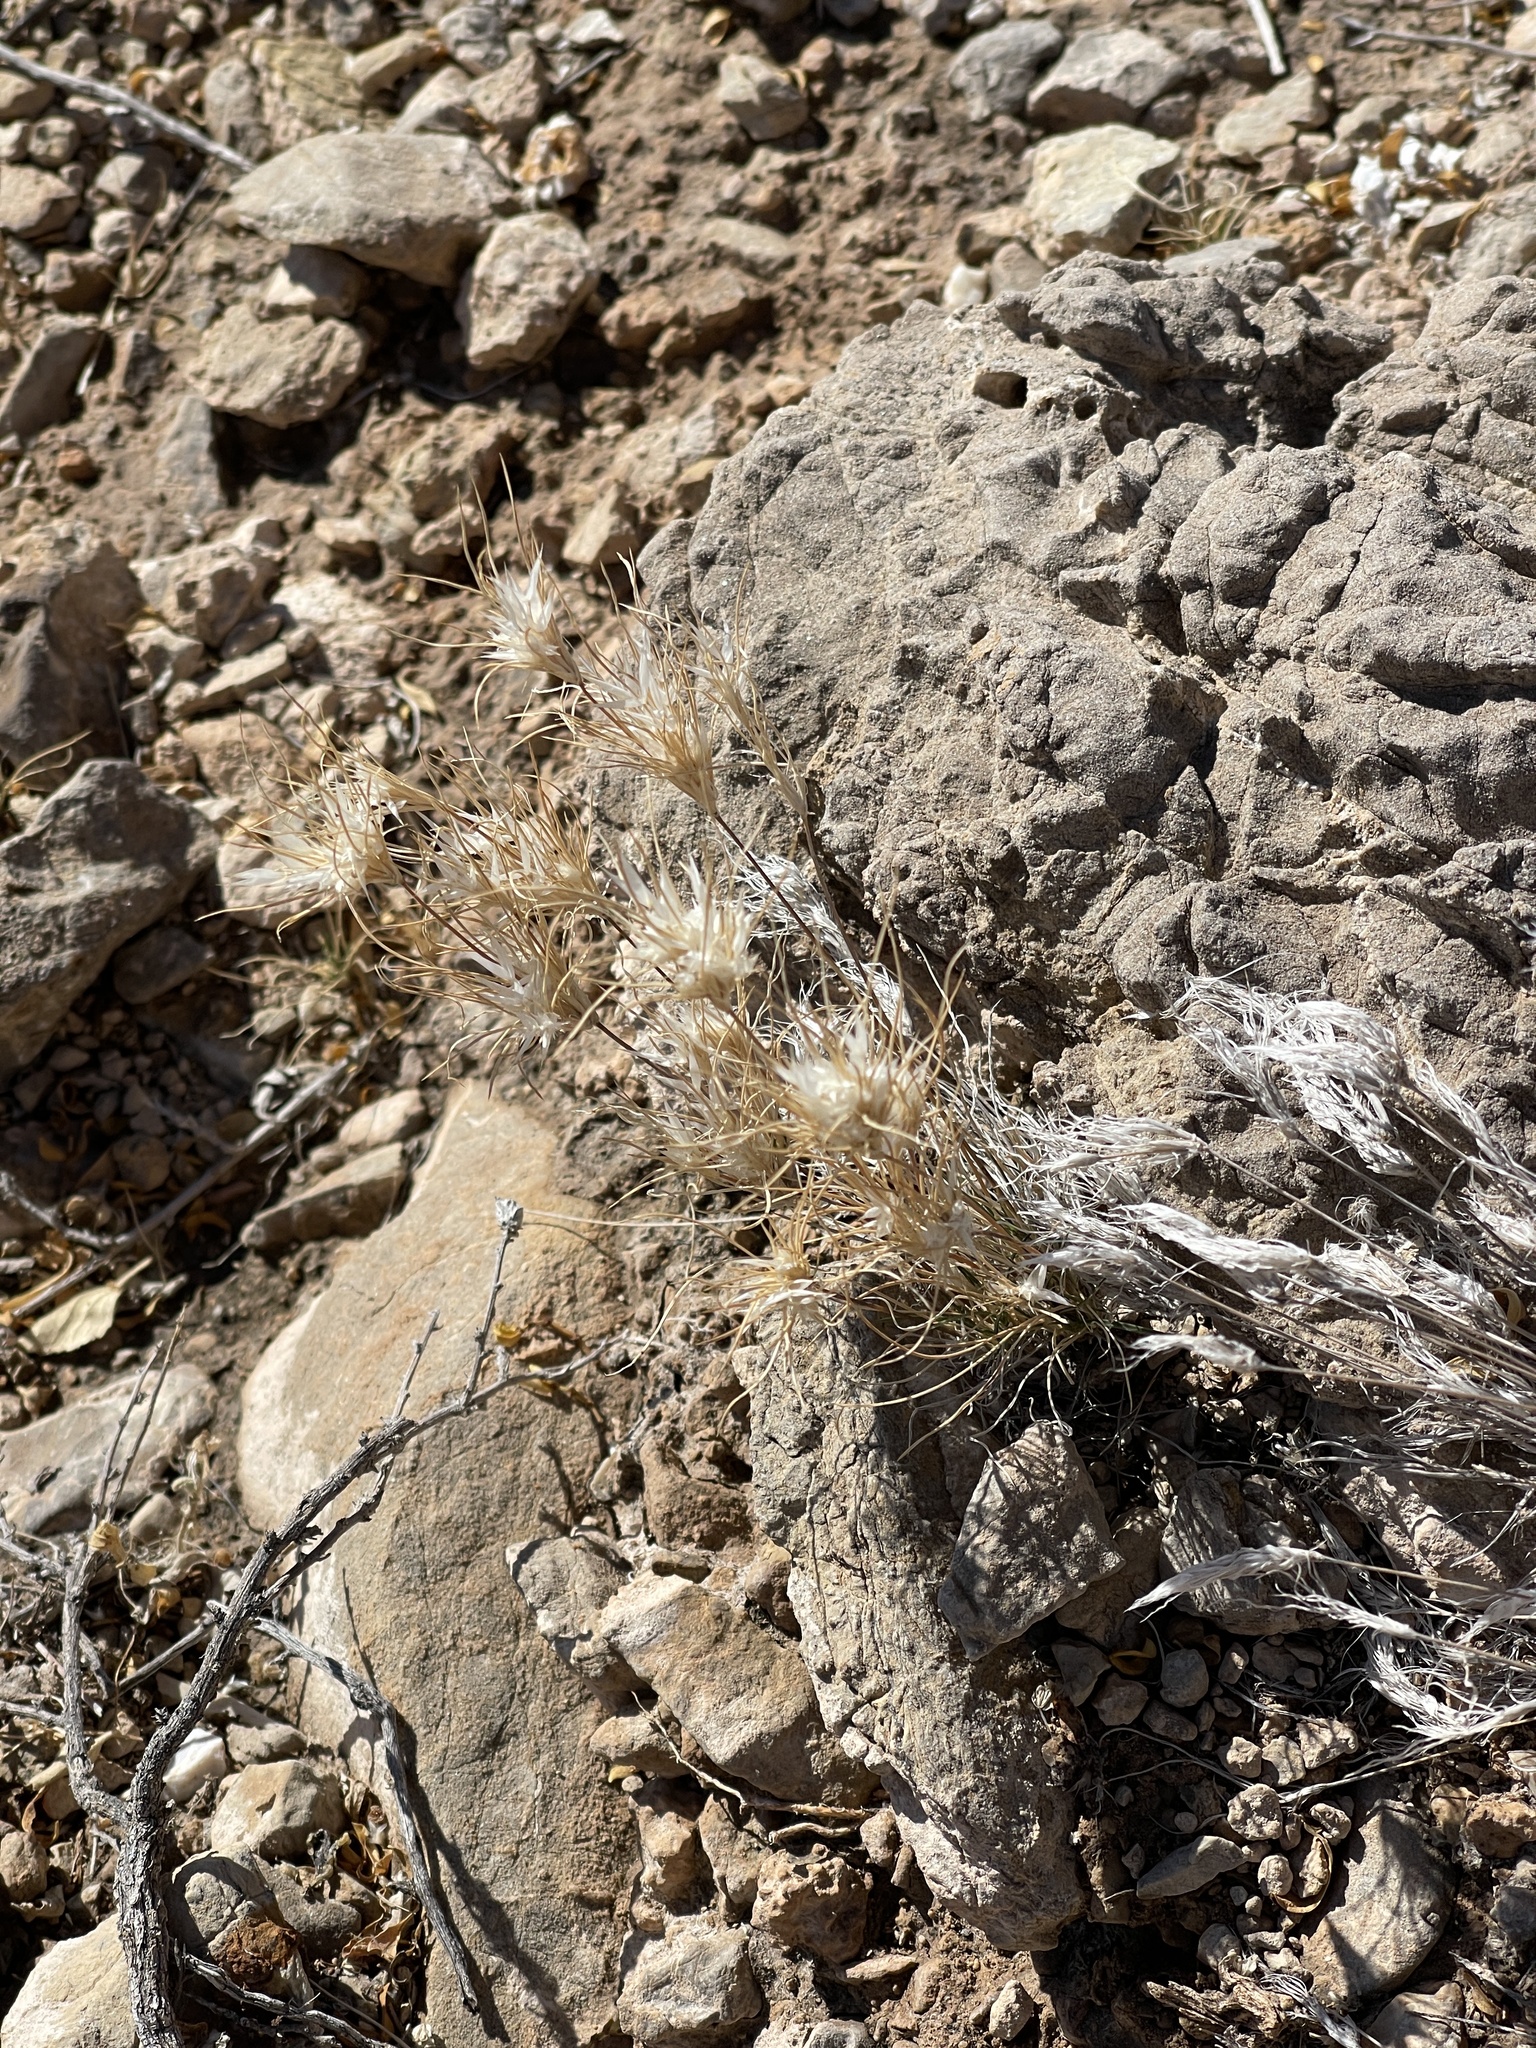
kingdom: Plantae
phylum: Tracheophyta
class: Liliopsida
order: Poales
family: Poaceae
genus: Dasyochloa
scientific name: Dasyochloa pulchella
